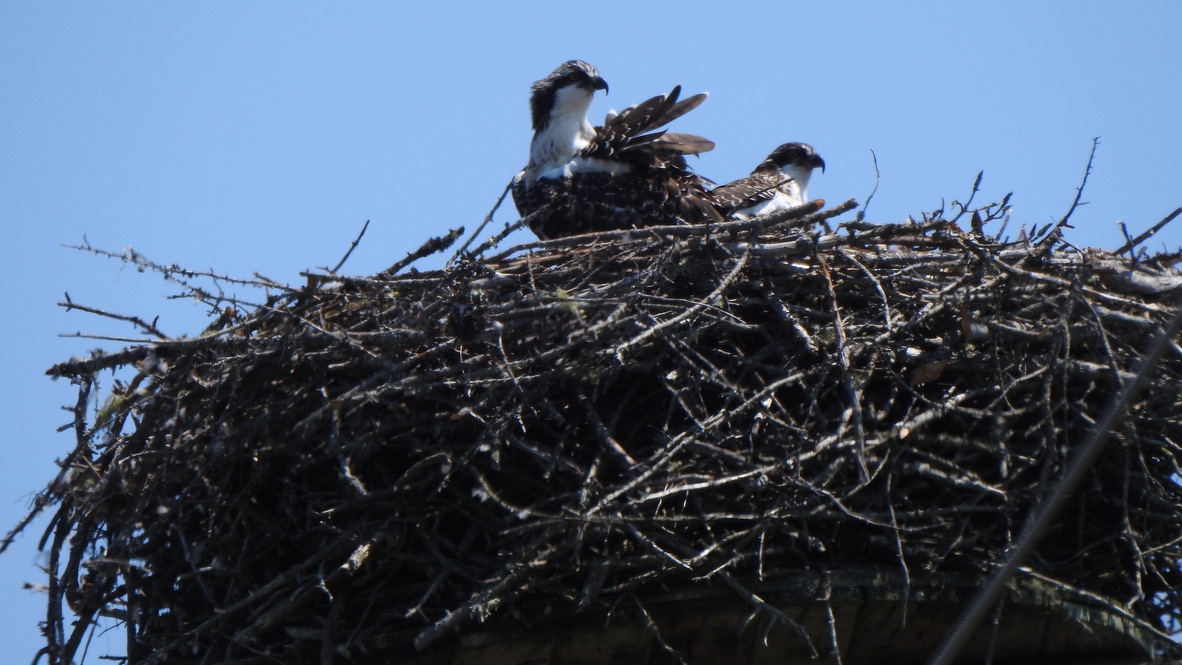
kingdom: Animalia
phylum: Chordata
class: Aves
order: Accipitriformes
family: Pandionidae
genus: Pandion
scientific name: Pandion haliaetus
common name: Osprey
